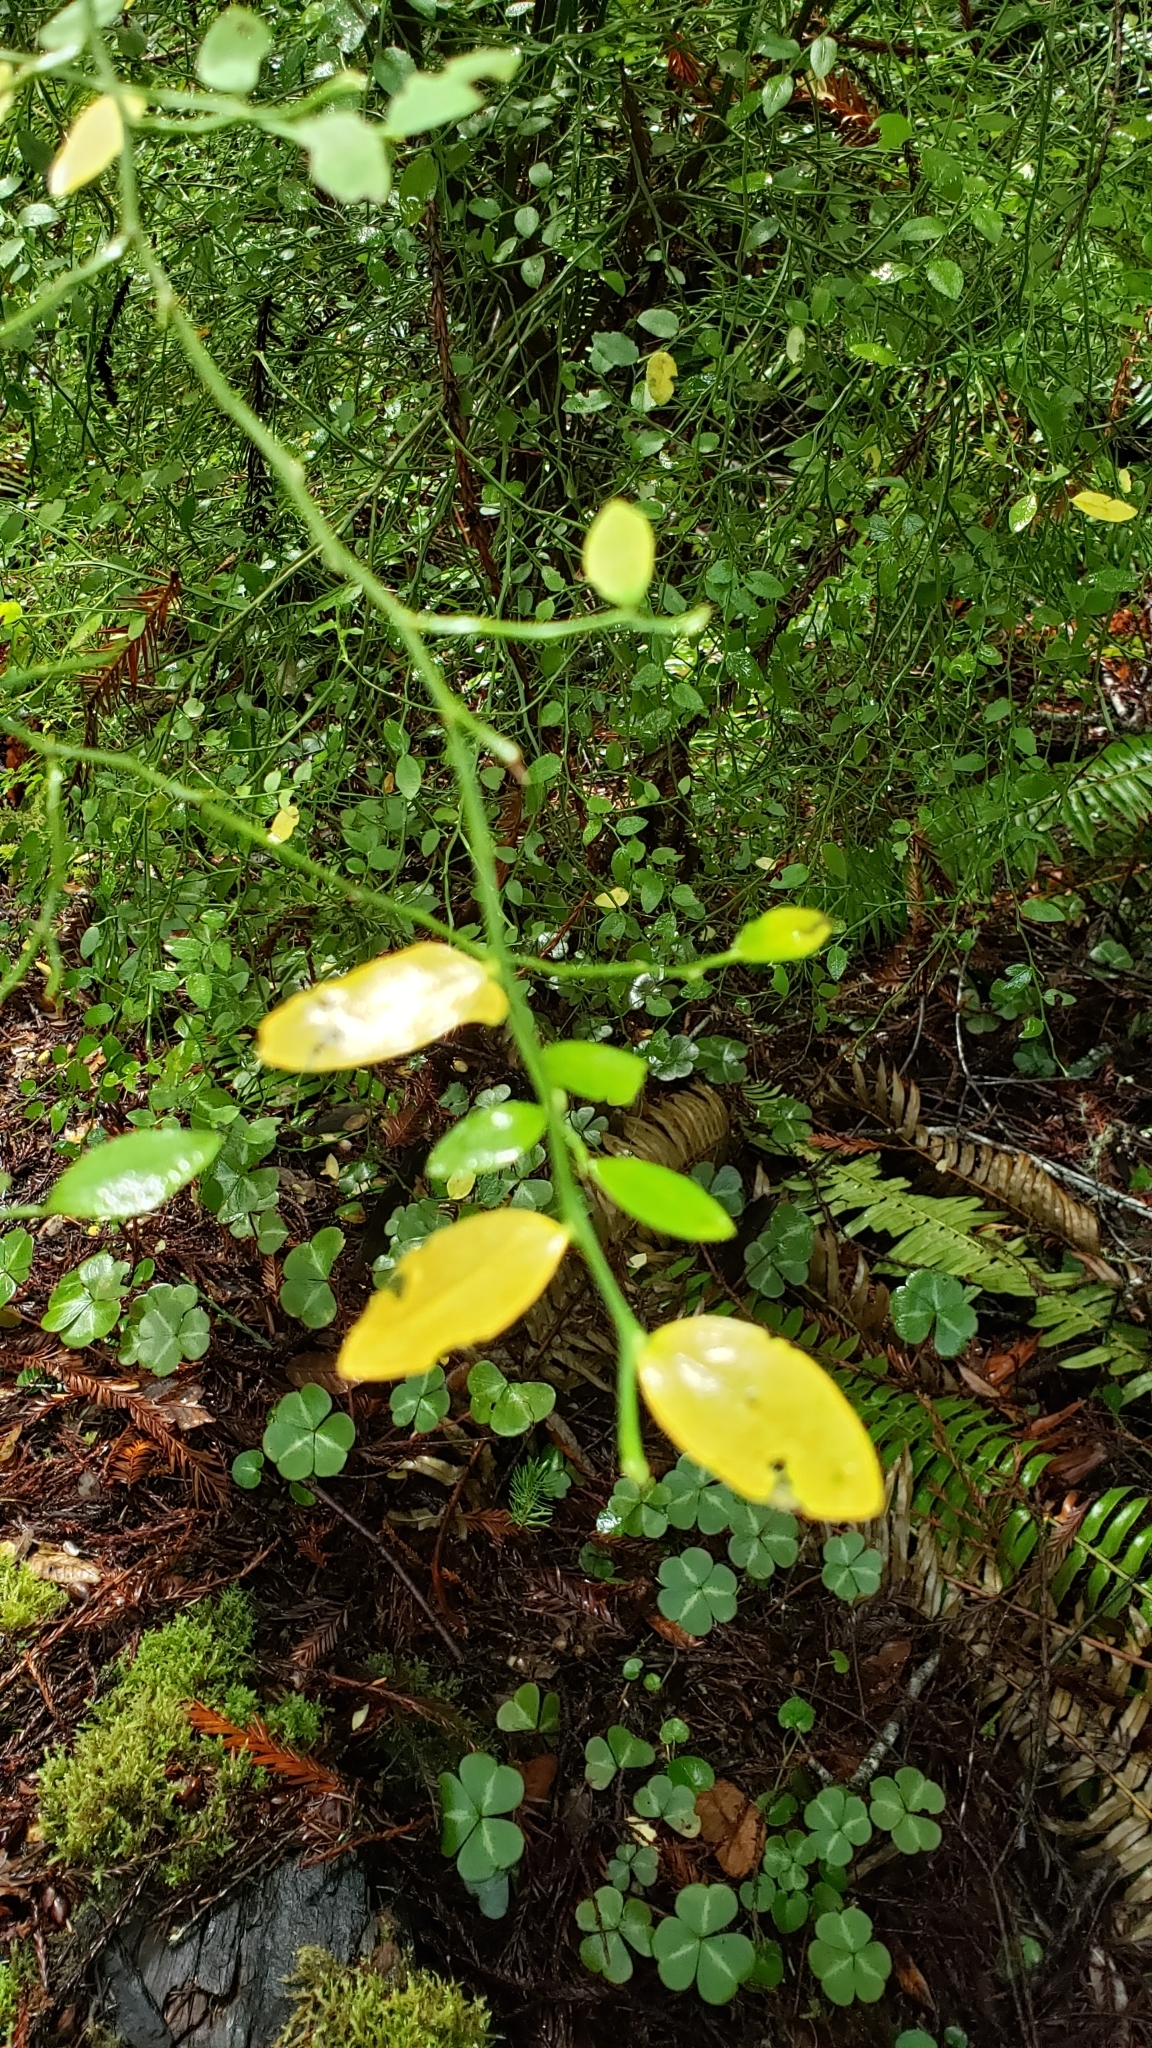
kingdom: Plantae
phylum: Tracheophyta
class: Magnoliopsida
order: Ericales
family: Ericaceae
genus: Vaccinium
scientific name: Vaccinium parvifolium
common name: Red-huckleberry
